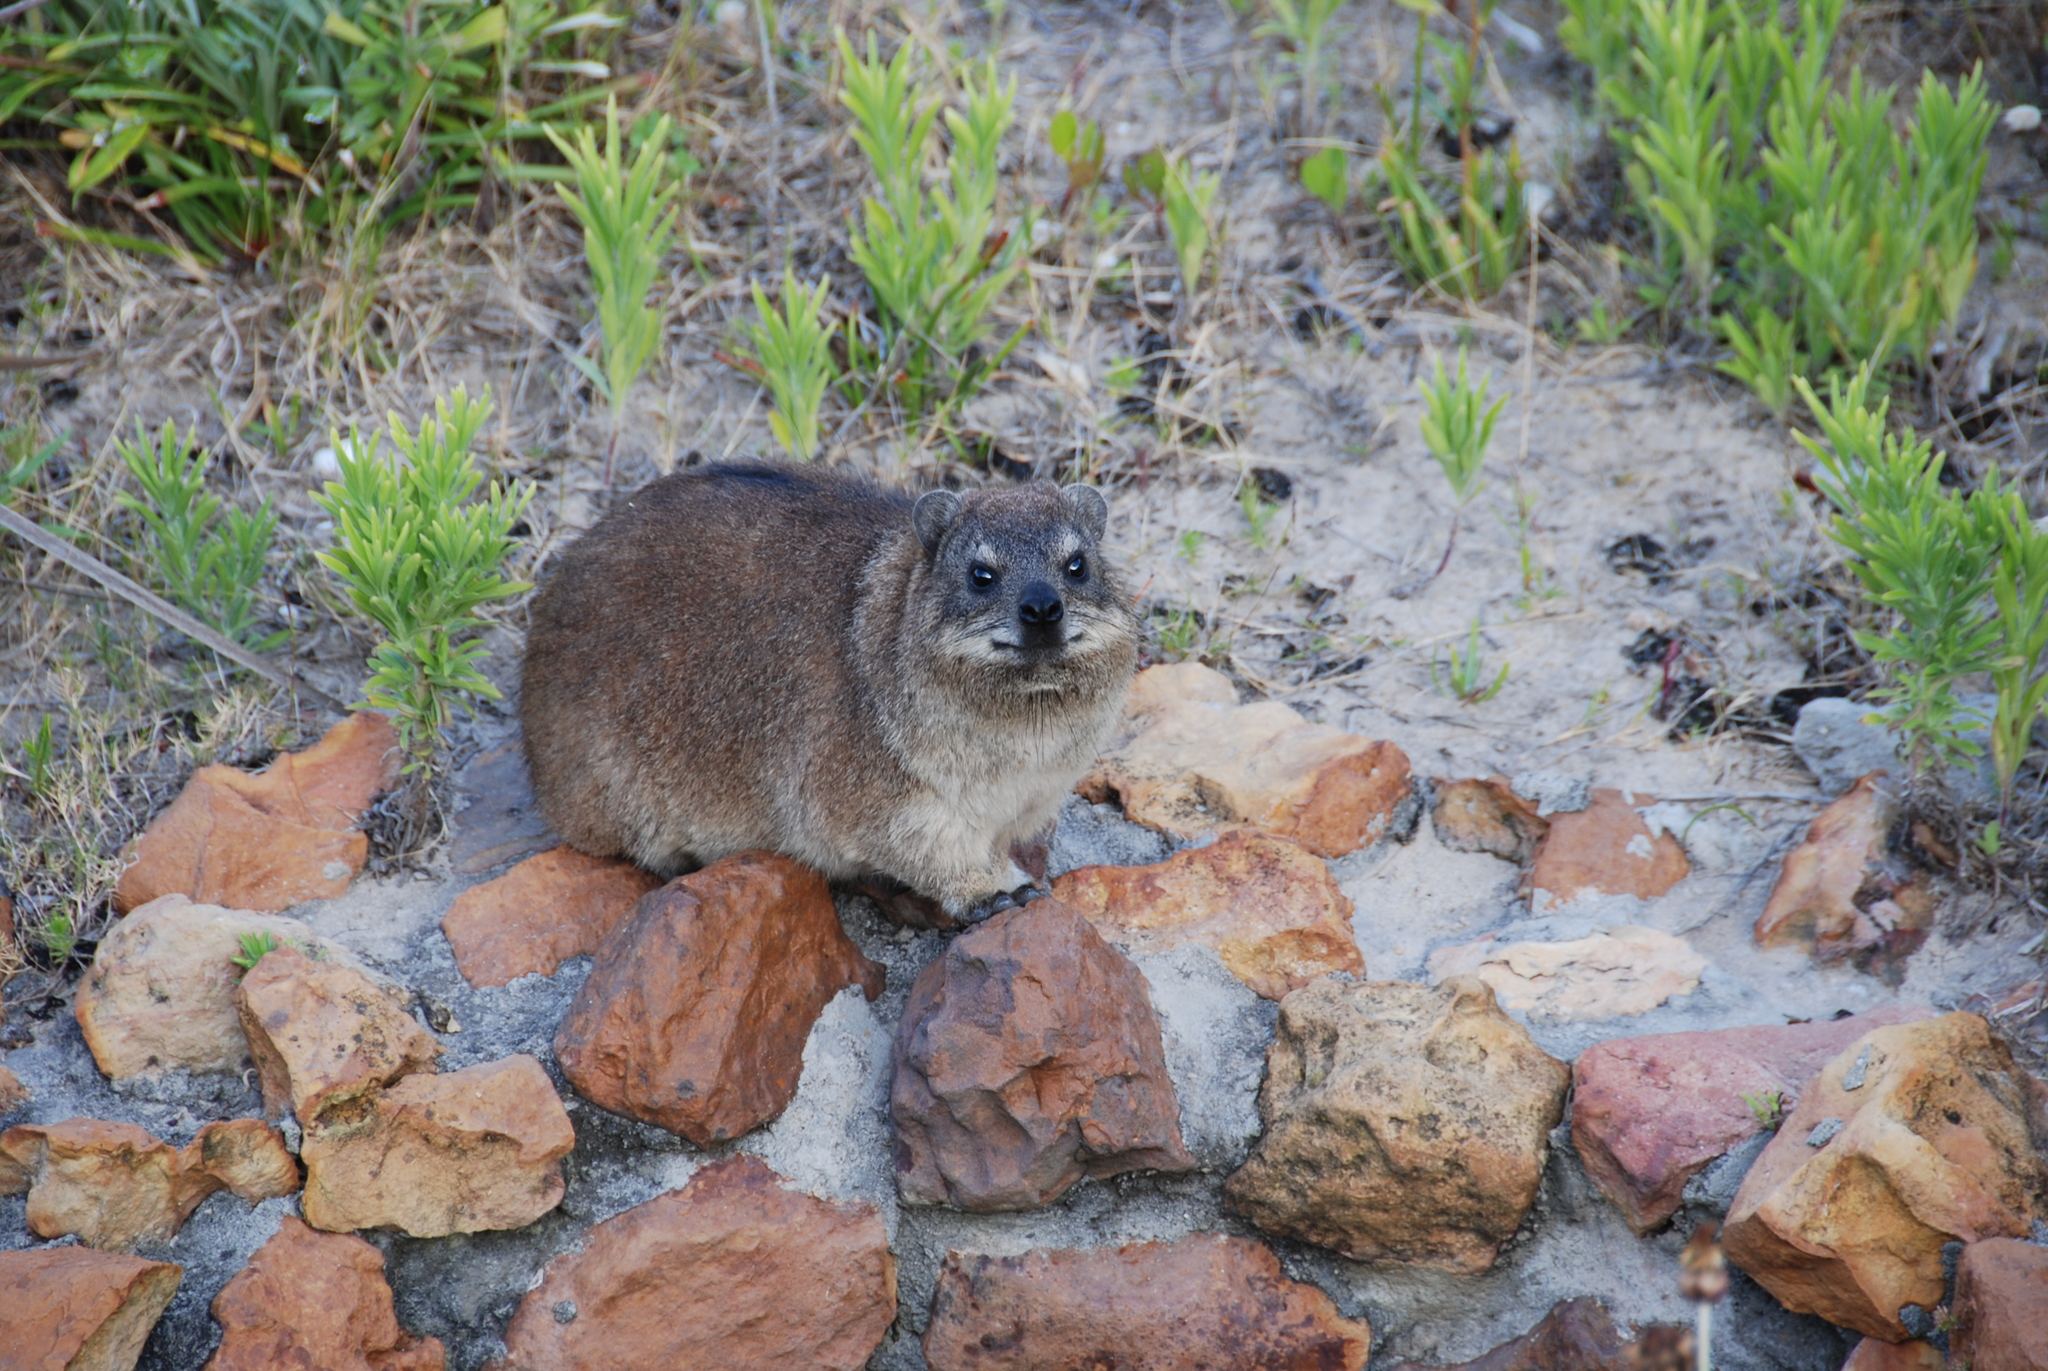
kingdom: Animalia
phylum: Chordata
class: Mammalia
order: Hyracoidea
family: Procaviidae
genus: Procavia
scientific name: Procavia capensis
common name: Rock hyrax
